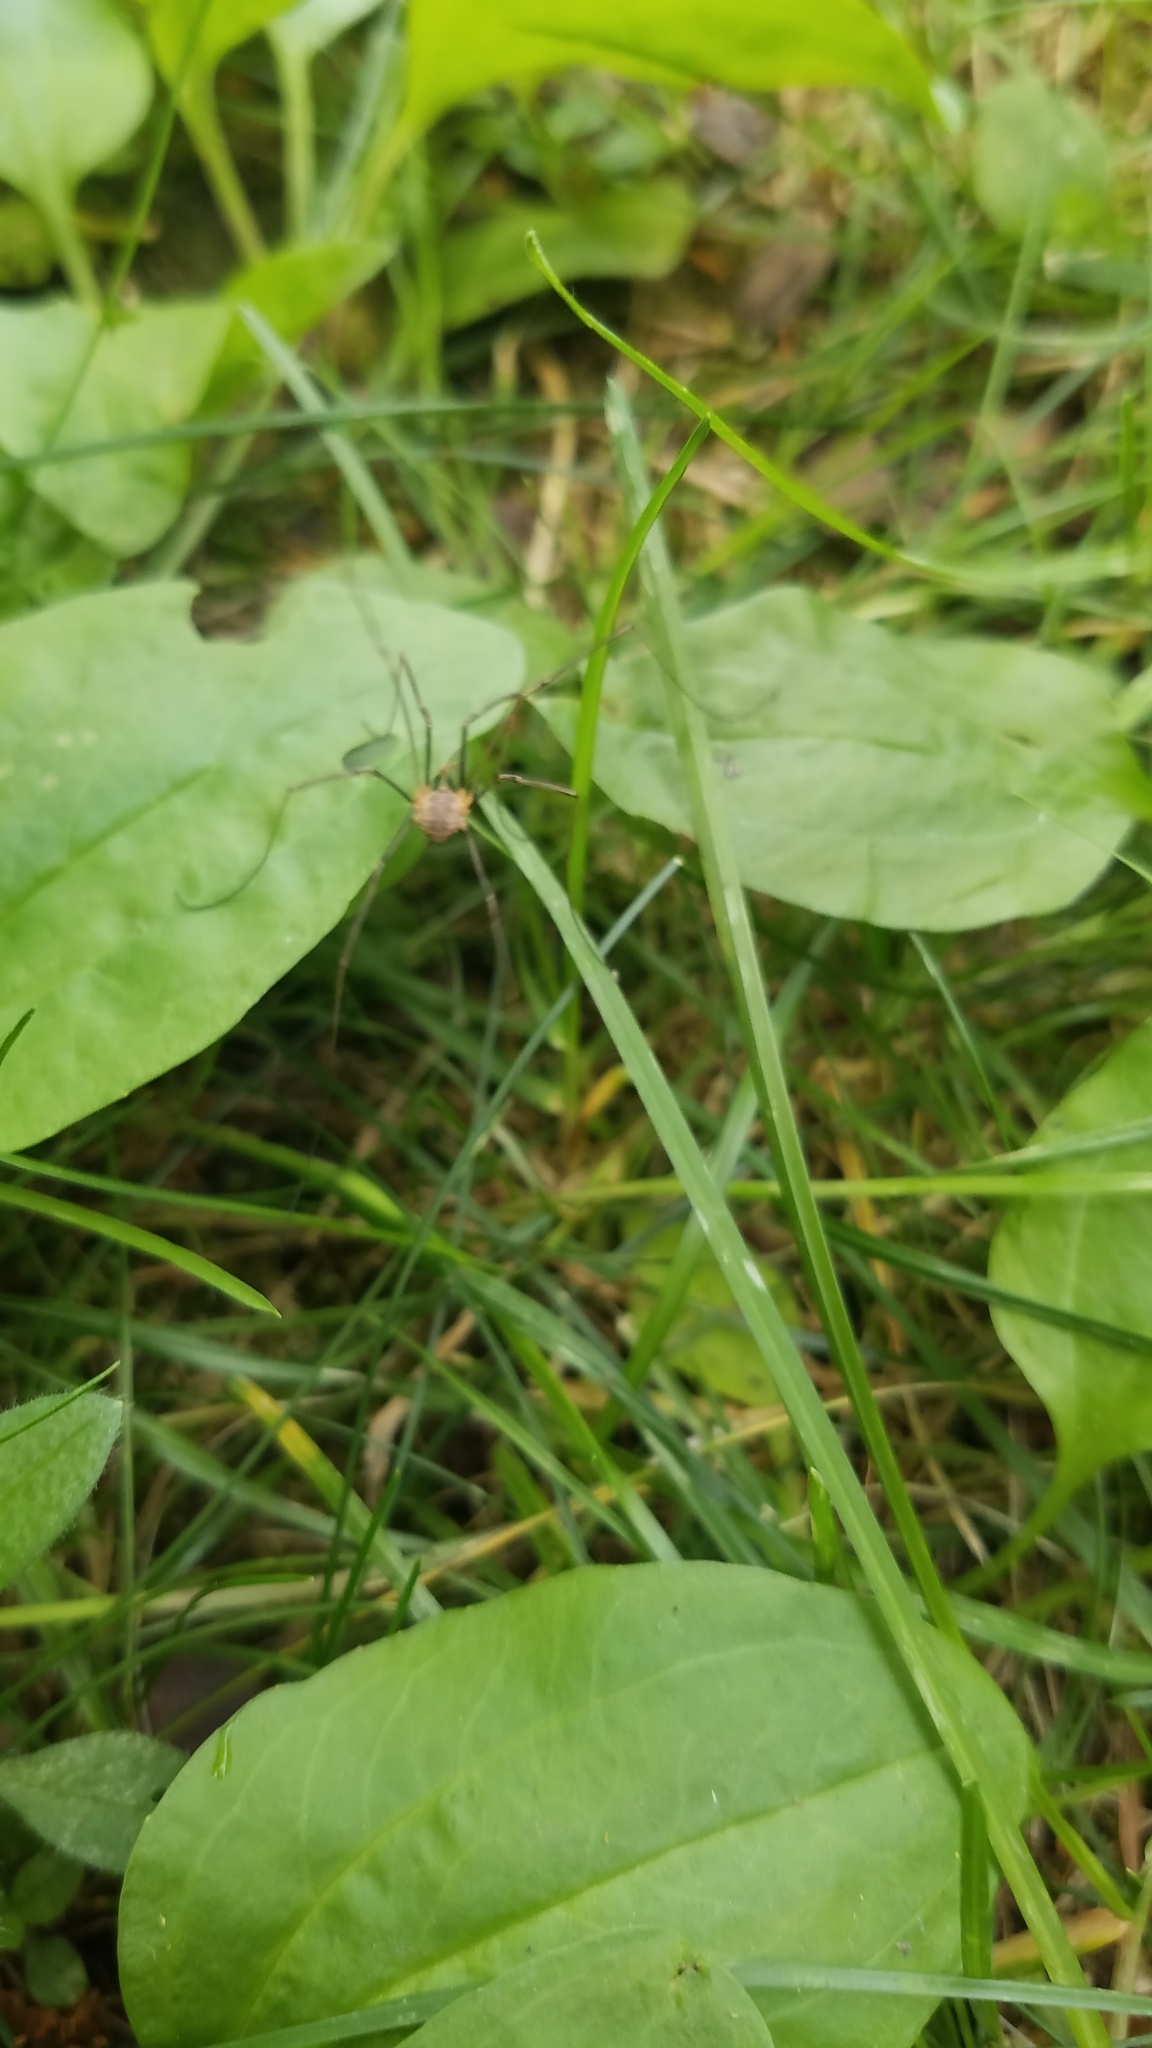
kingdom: Animalia
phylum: Arthropoda
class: Arachnida
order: Opiliones
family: Phalangiidae
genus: Phalangium
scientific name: Phalangium opilio
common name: Daddy longleg
